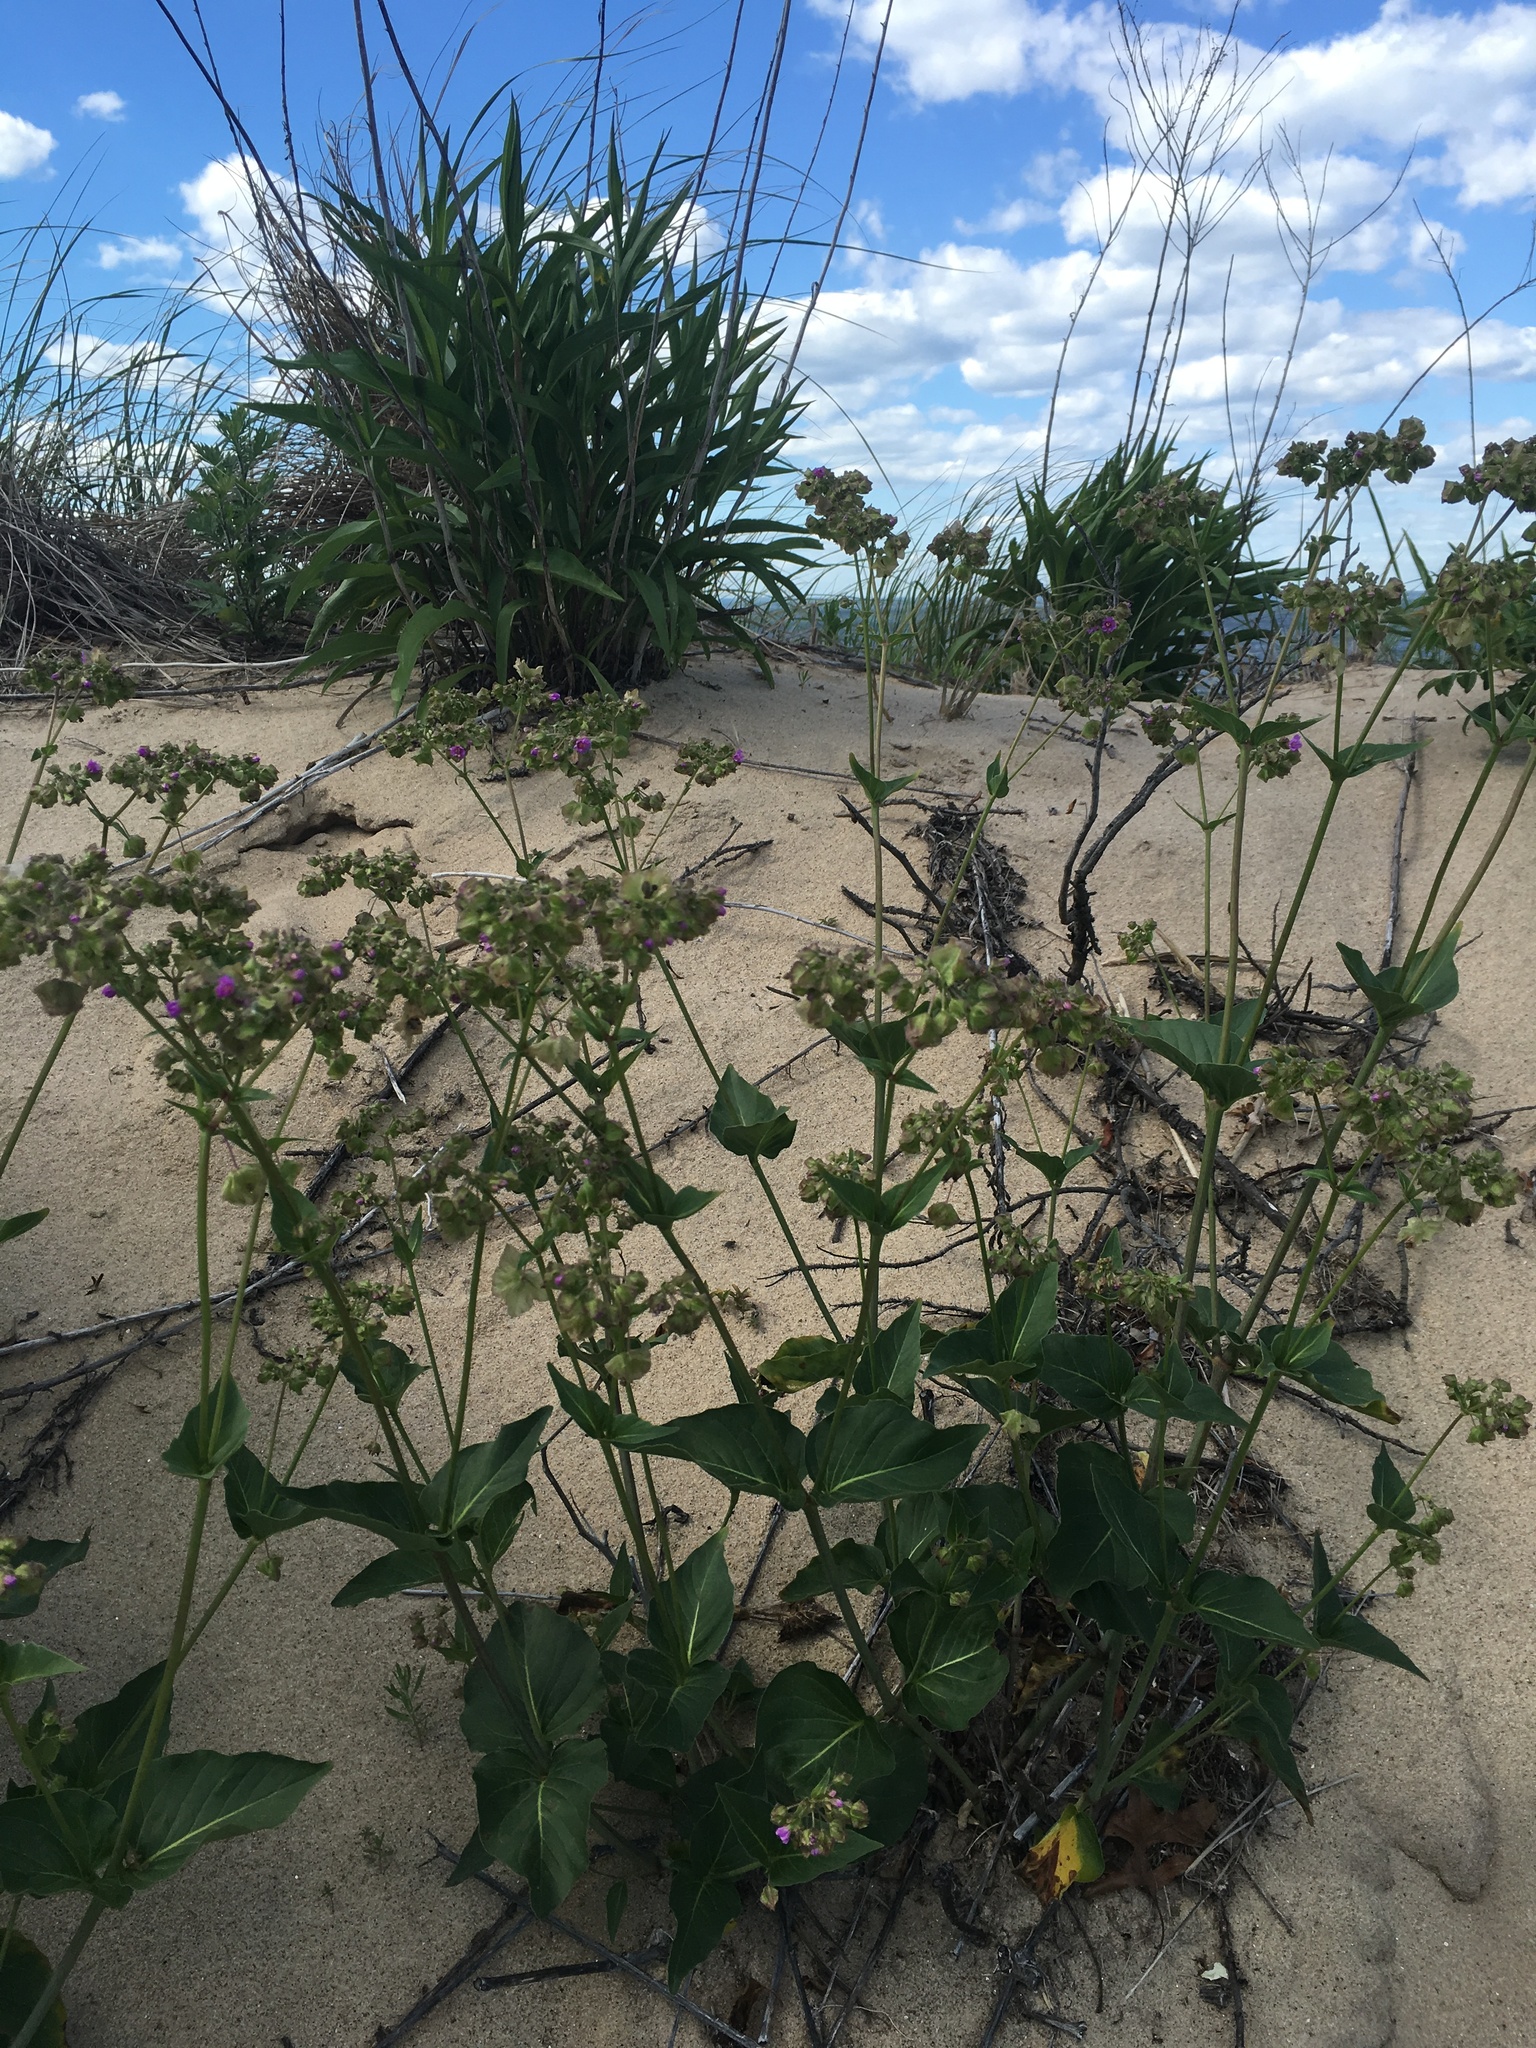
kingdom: Plantae
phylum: Tracheophyta
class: Magnoliopsida
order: Caryophyllales
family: Nyctaginaceae
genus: Mirabilis
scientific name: Mirabilis nyctaginea
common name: Umbrella wort
